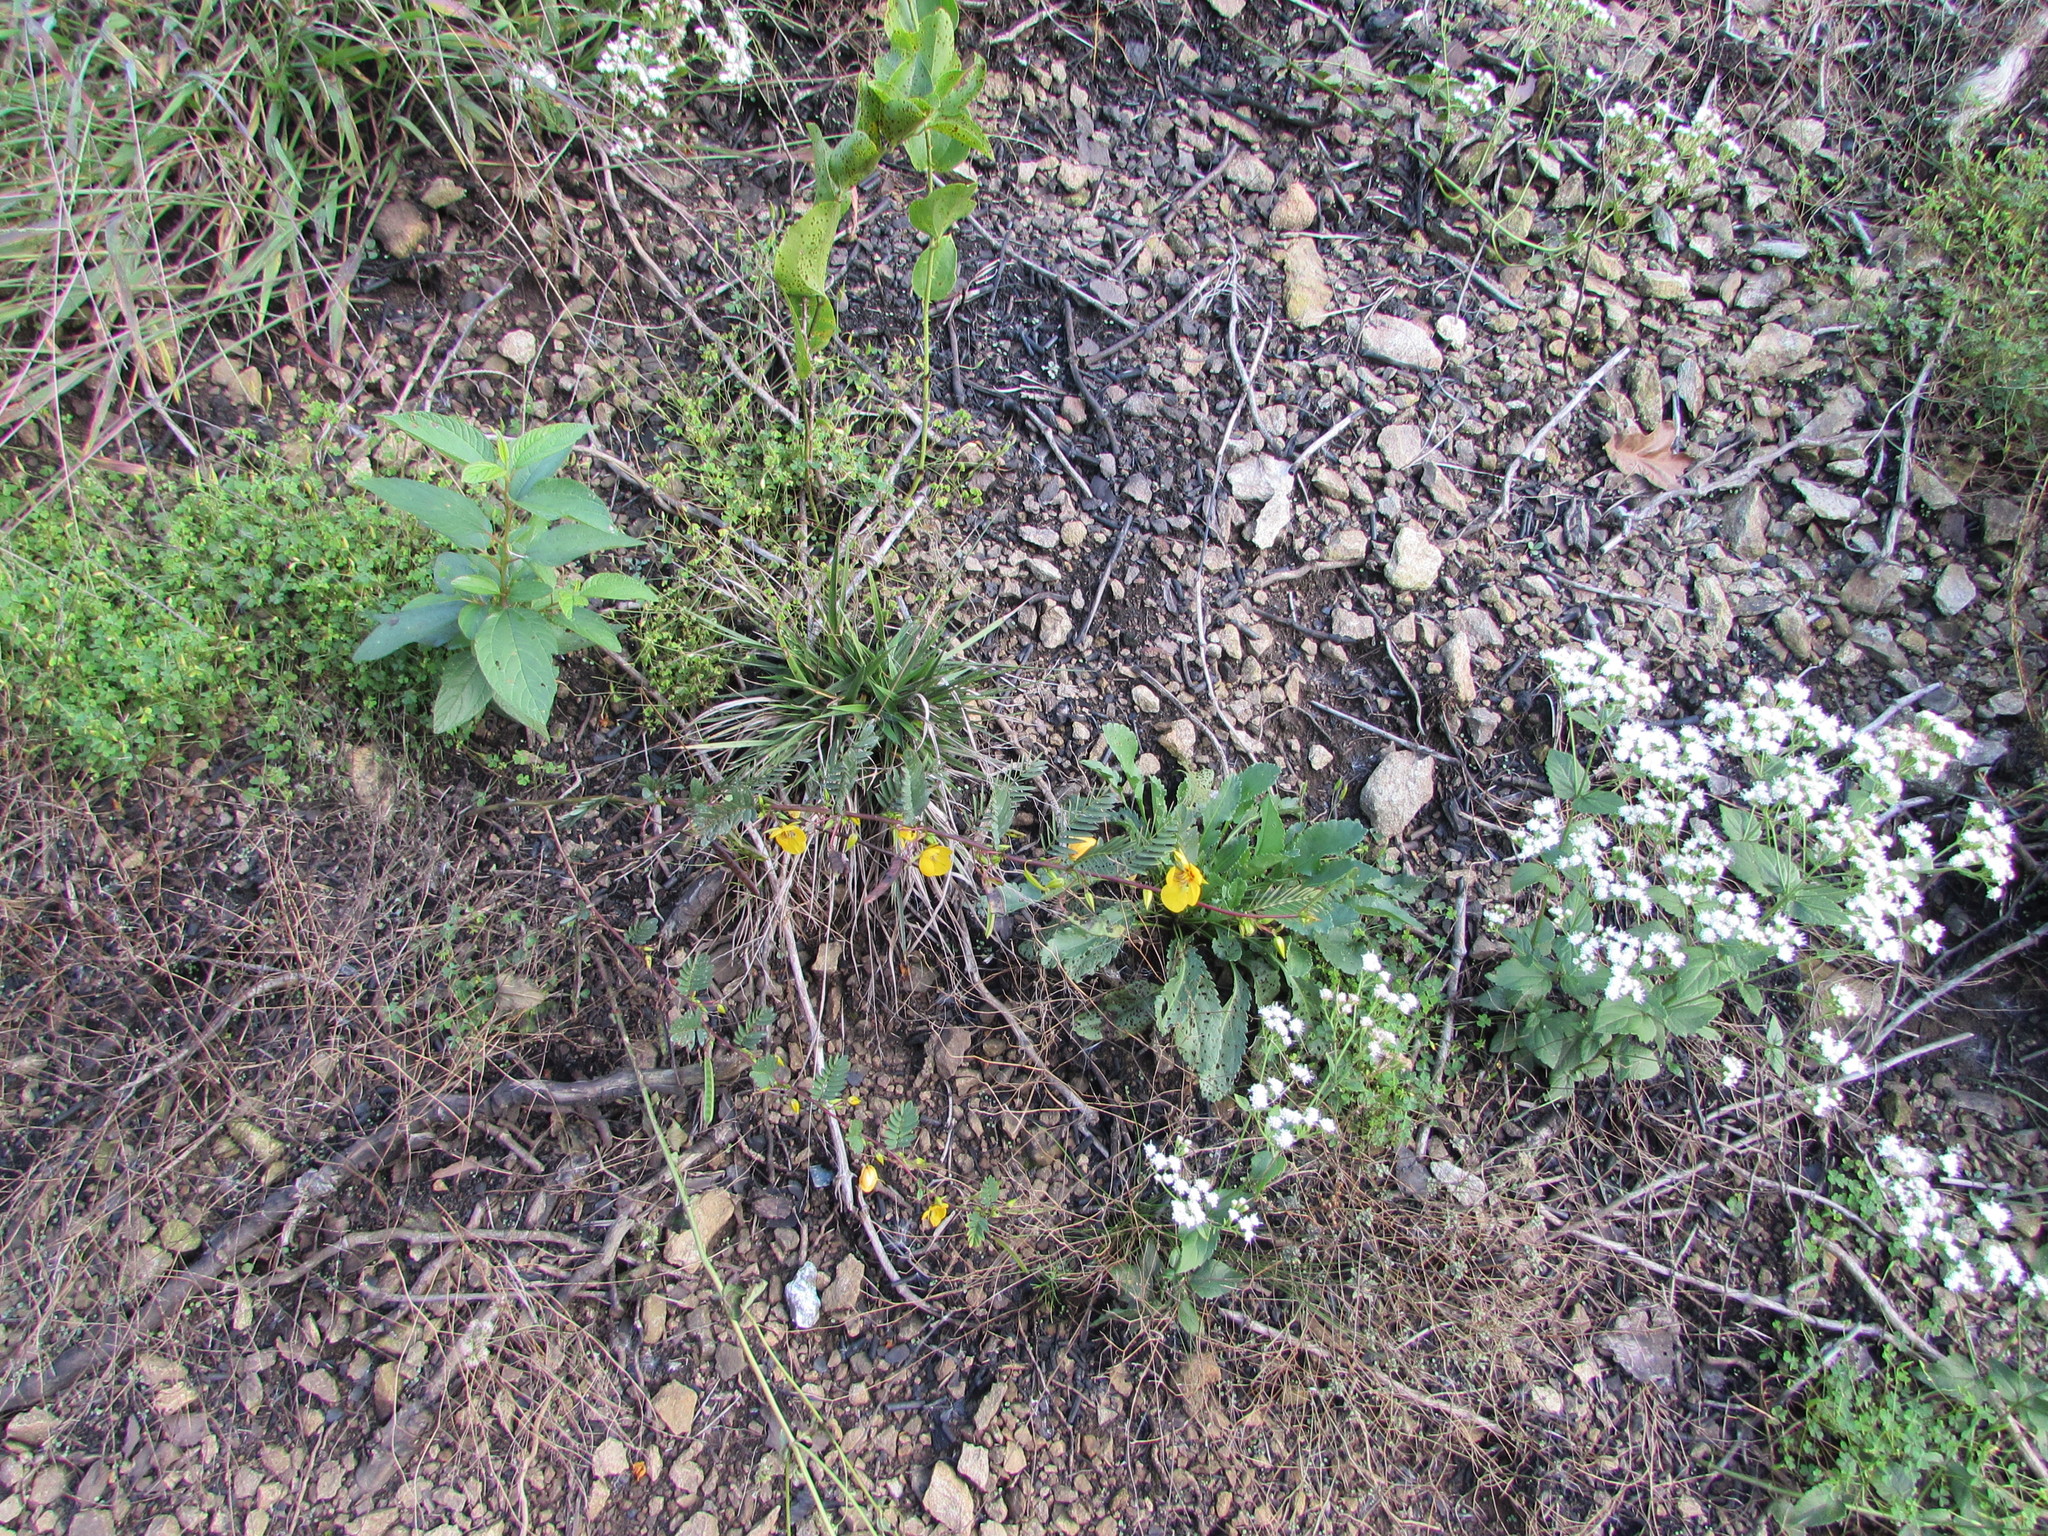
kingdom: Plantae
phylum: Tracheophyta
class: Magnoliopsida
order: Fabales
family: Fabaceae
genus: Chamaecrista
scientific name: Chamaecrista fasciculata
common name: Golden cassia
